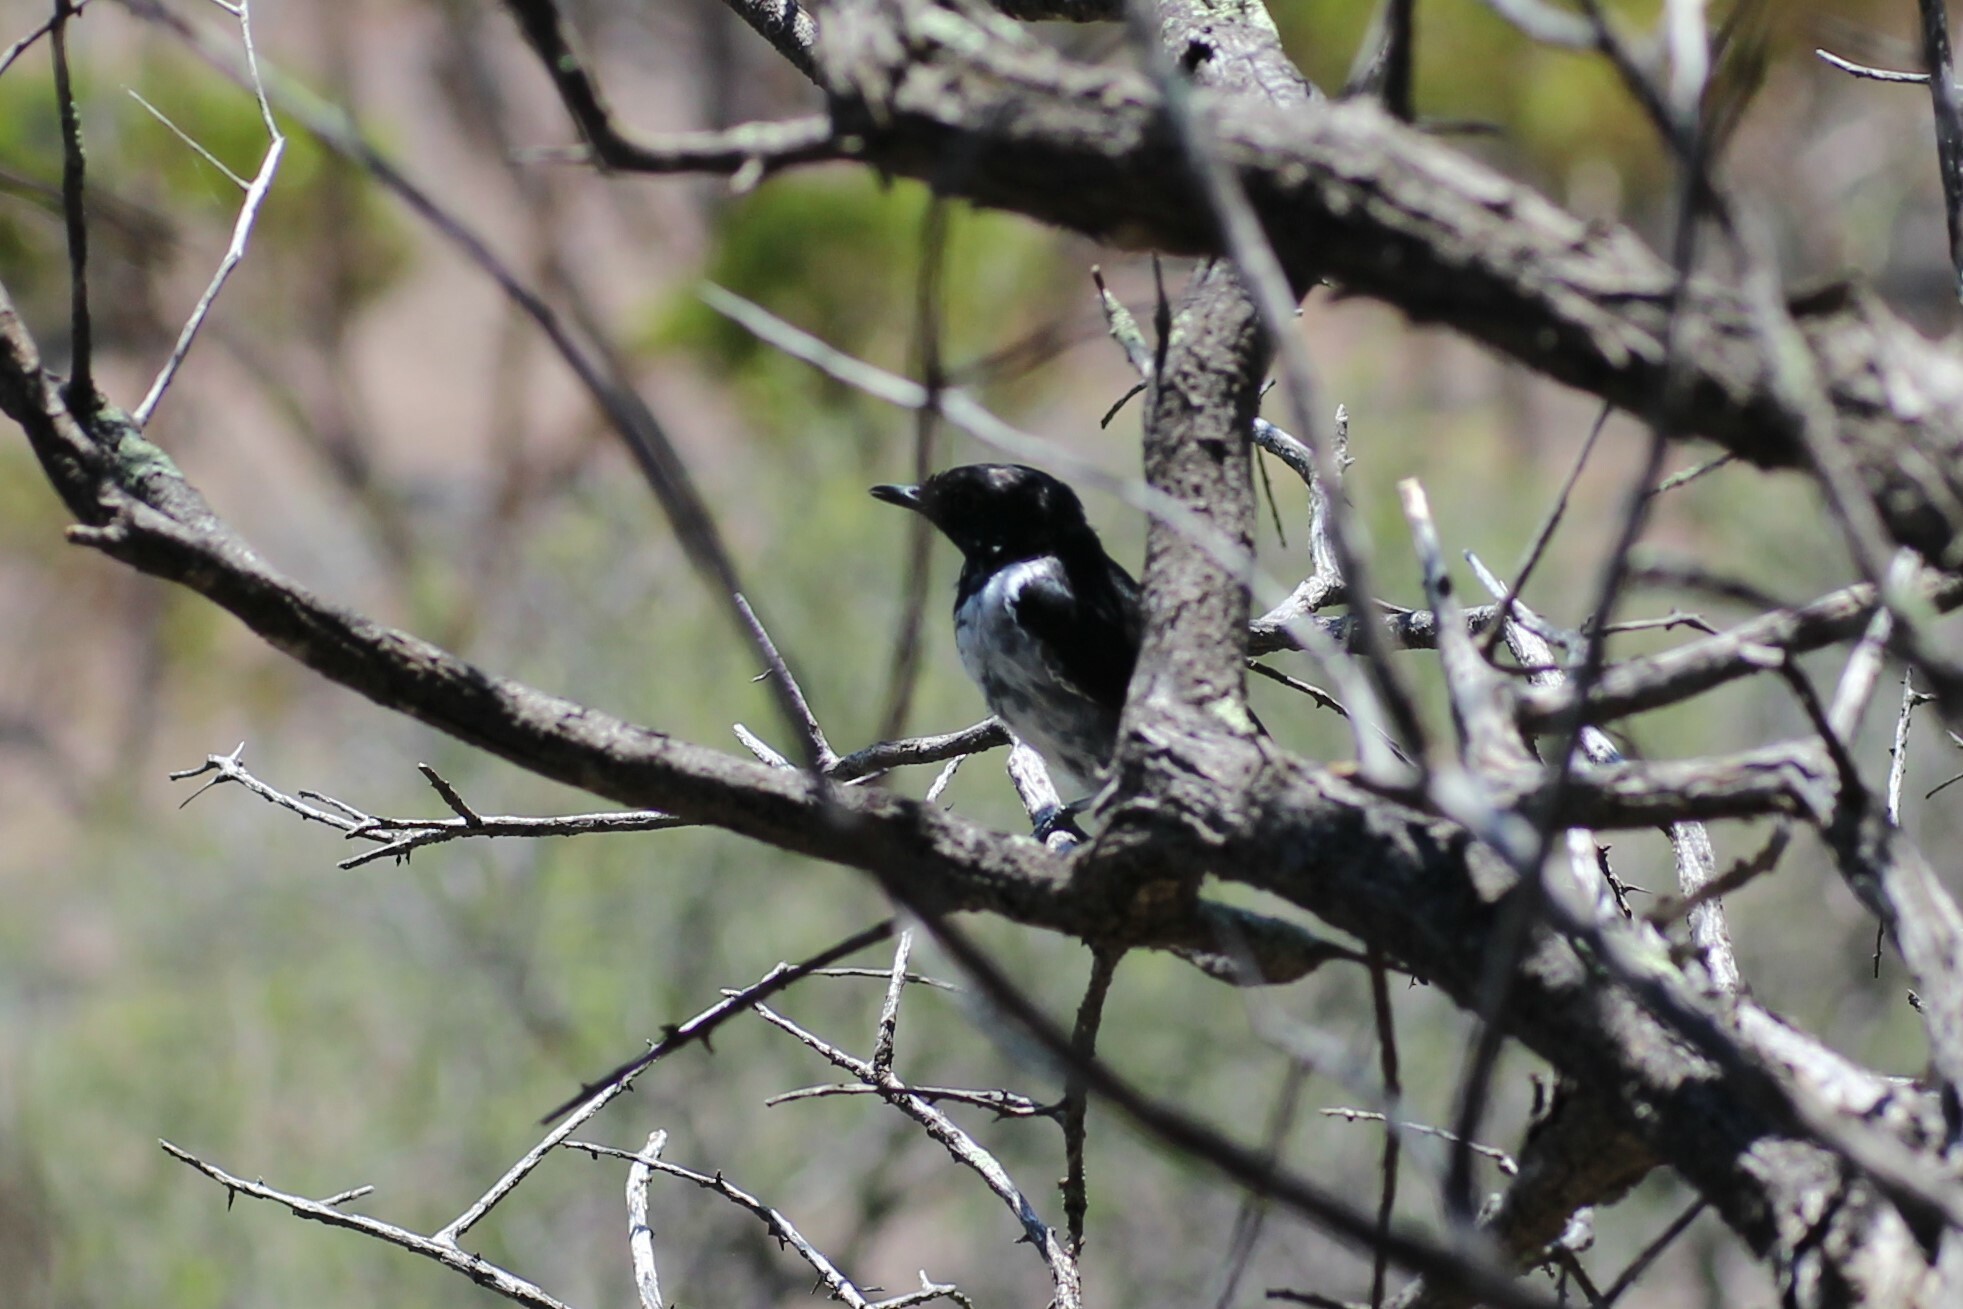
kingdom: Animalia
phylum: Chordata
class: Aves
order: Passeriformes
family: Petroicidae
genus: Melanodryas
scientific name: Melanodryas cucullata
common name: Hooded robin
